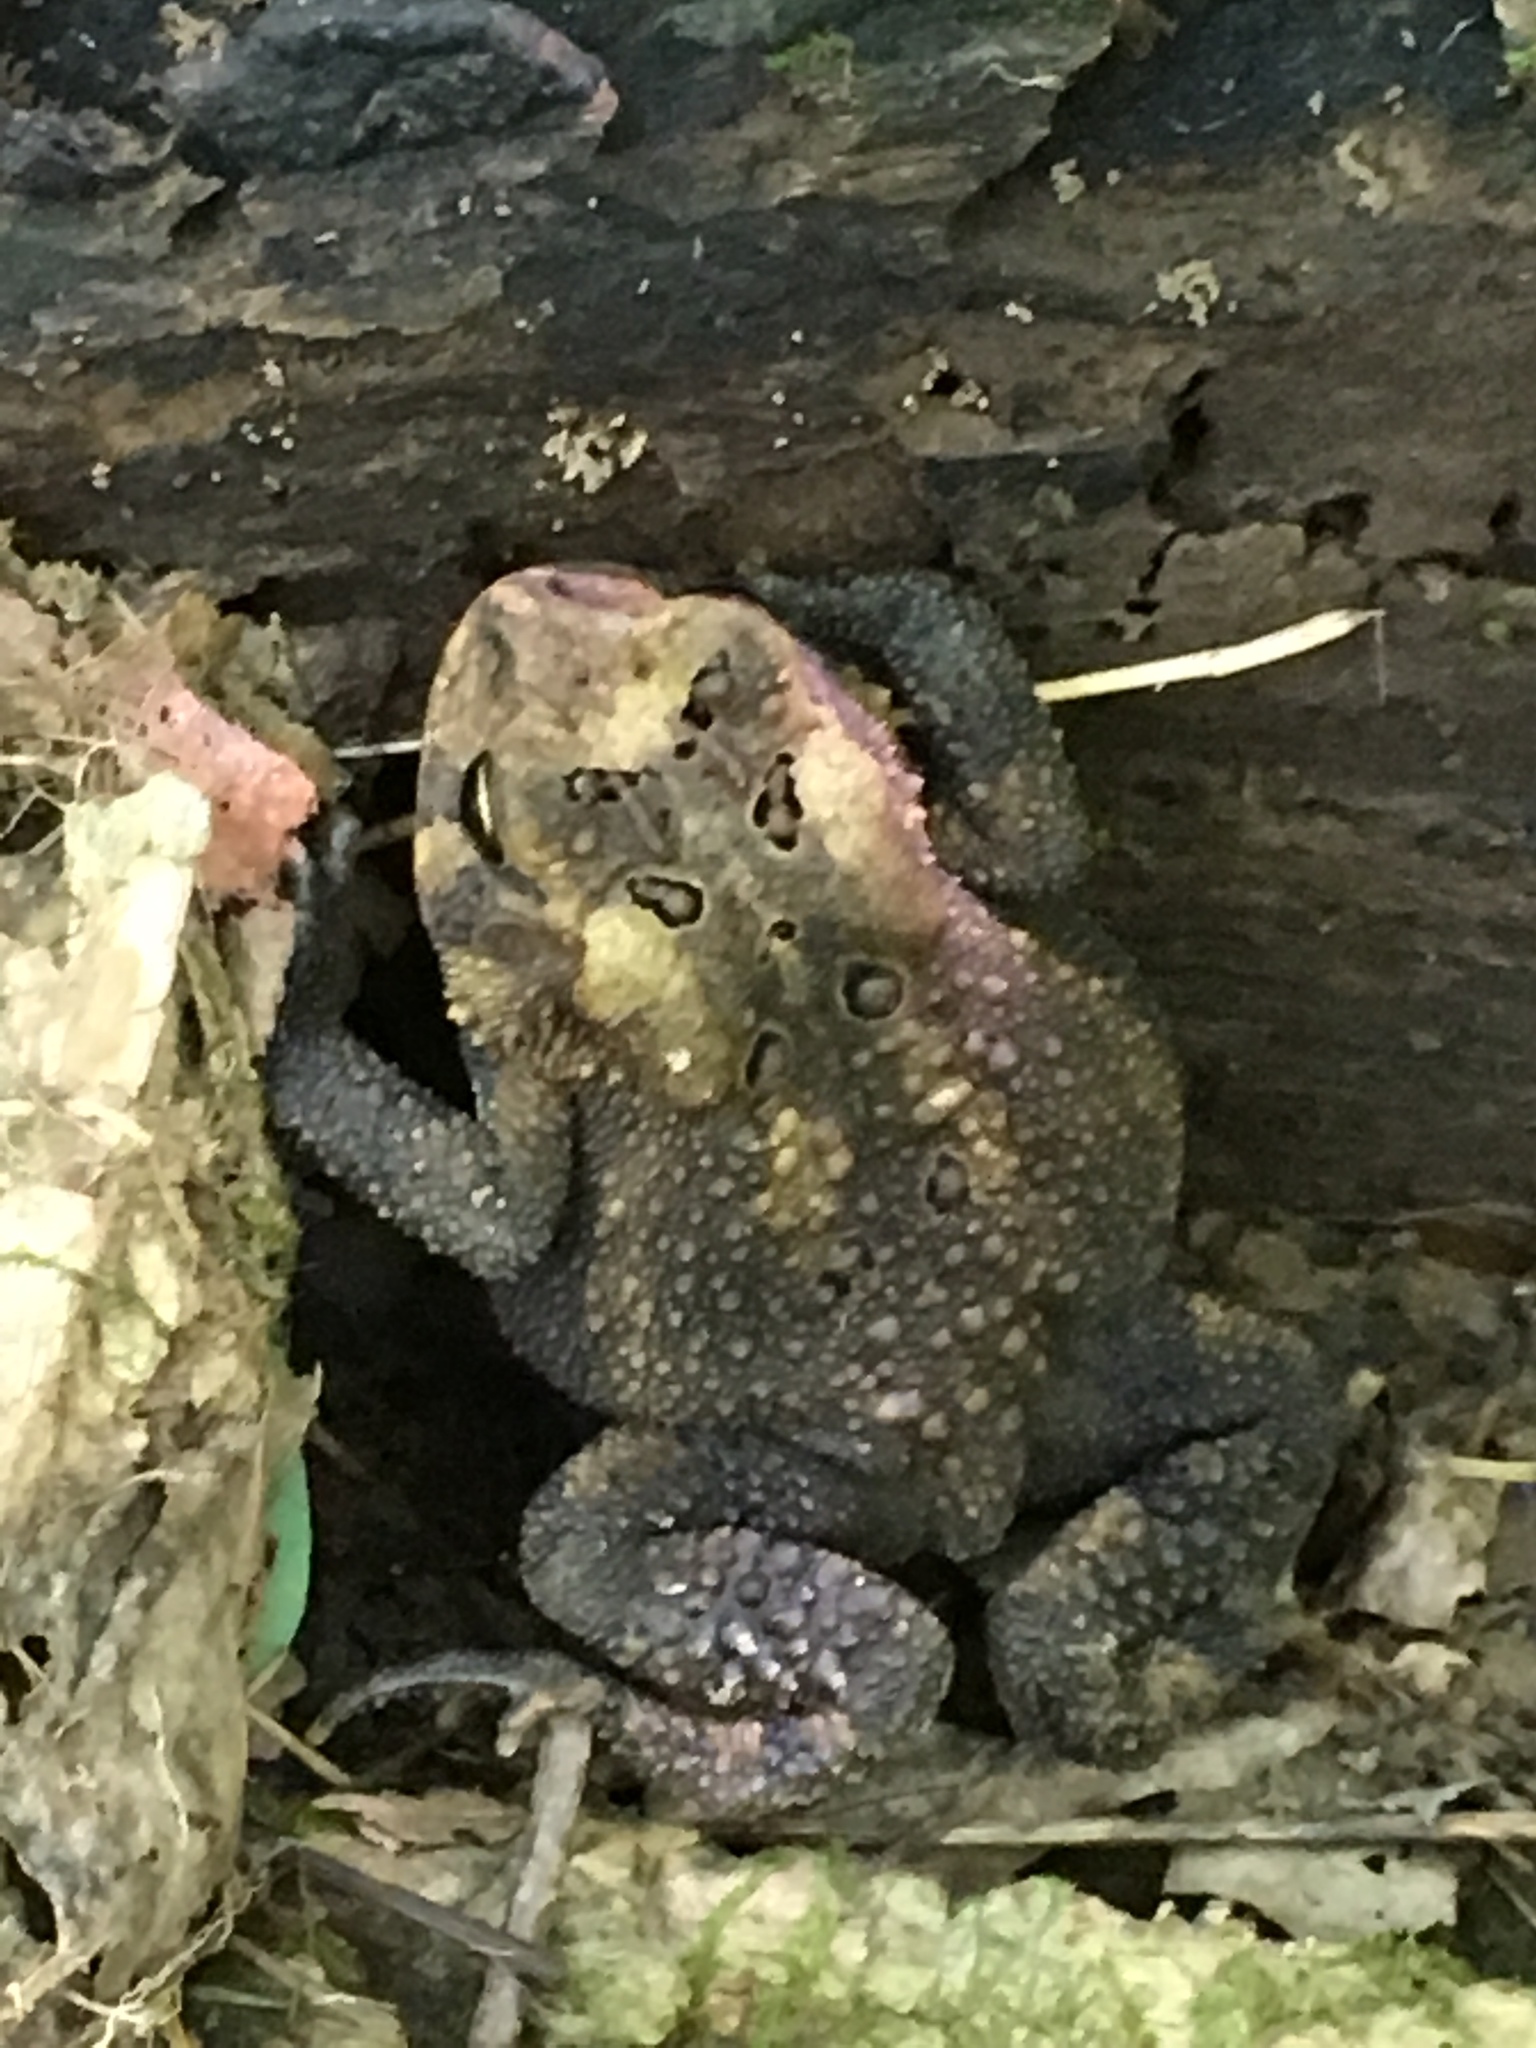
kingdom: Animalia
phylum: Chordata
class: Amphibia
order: Anura
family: Bufonidae
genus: Anaxyrus
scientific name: Anaxyrus americanus
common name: American toad
